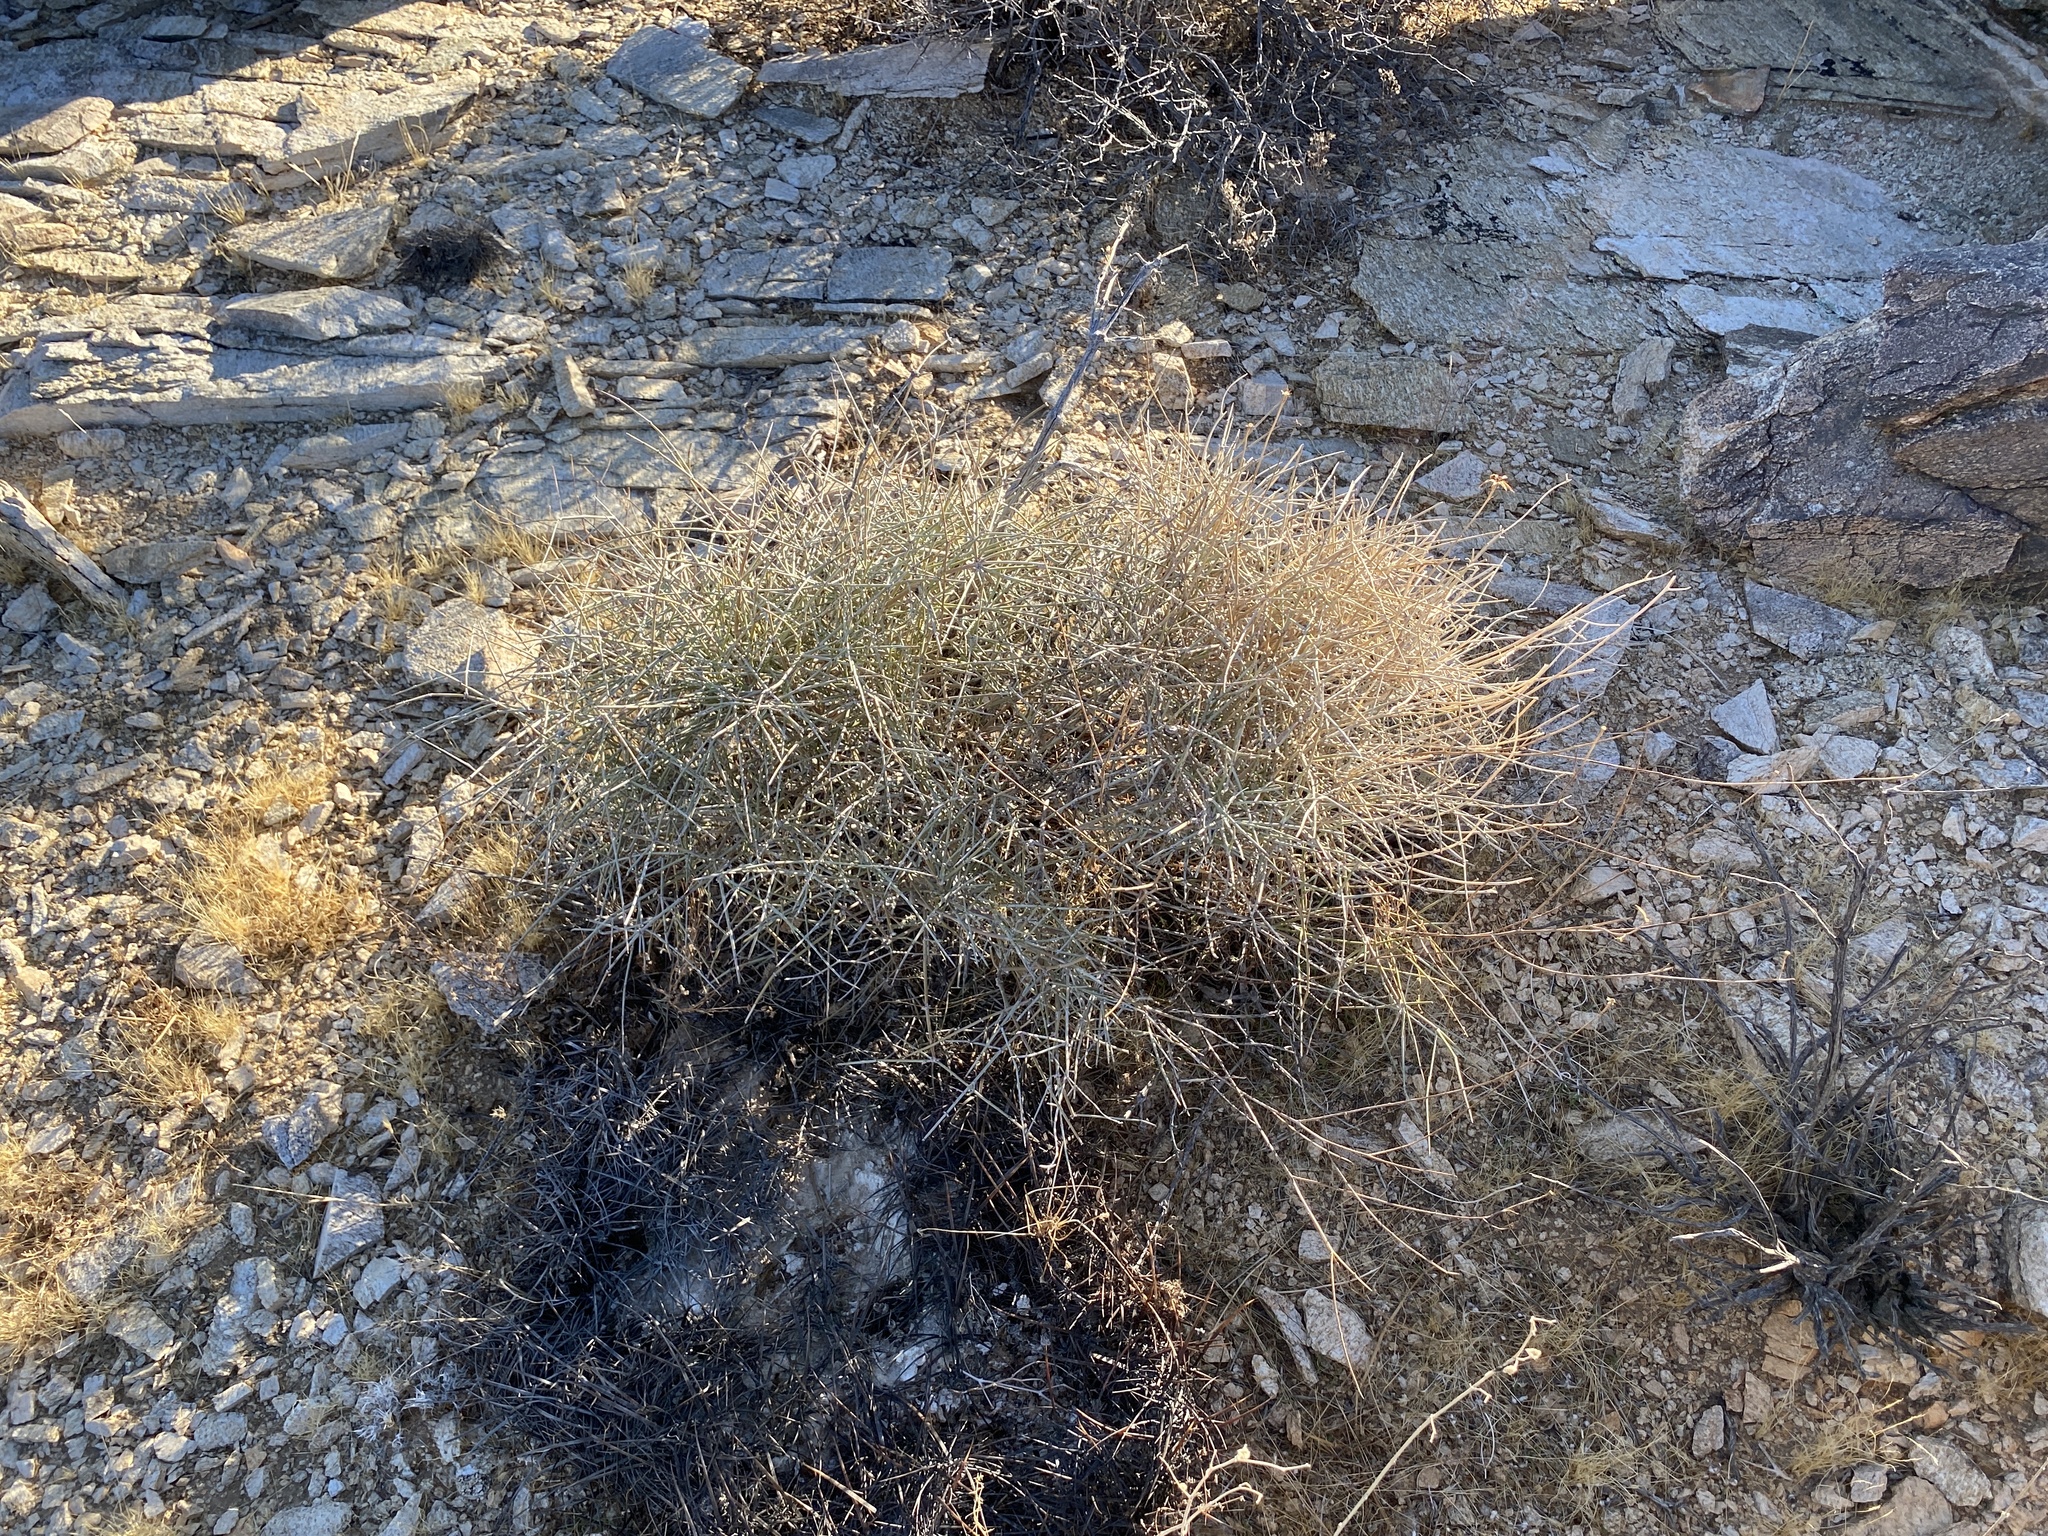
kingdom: Plantae
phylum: Tracheophyta
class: Gnetopsida
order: Ephedrales
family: Ephedraceae
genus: Ephedra
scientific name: Ephedra nevadensis
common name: Gray ephedra
